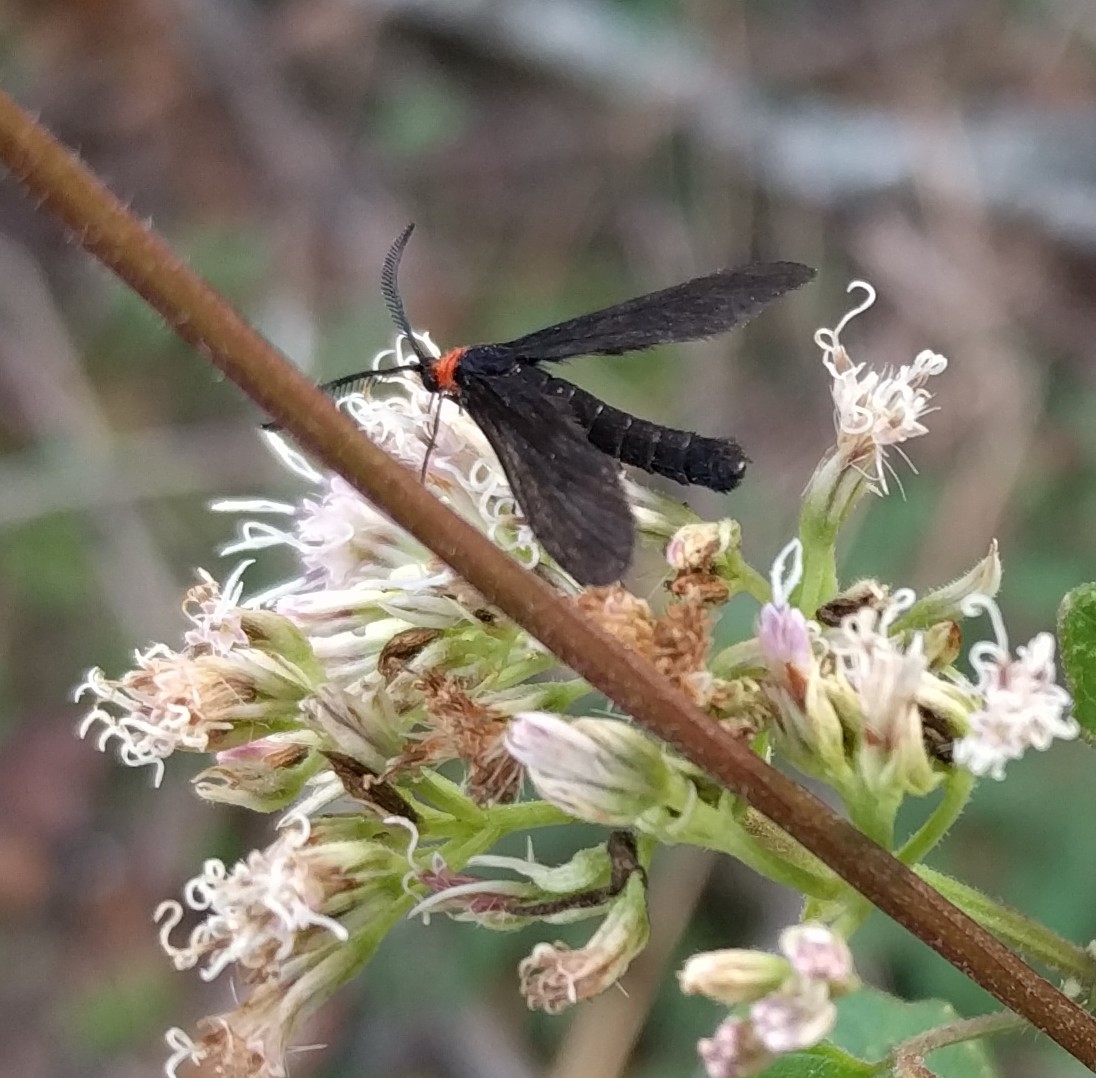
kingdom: Animalia
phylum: Arthropoda
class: Insecta
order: Lepidoptera
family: Zygaenidae
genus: Harrisina
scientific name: Harrisina americana
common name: Grapeleaf skeletonizer moth
